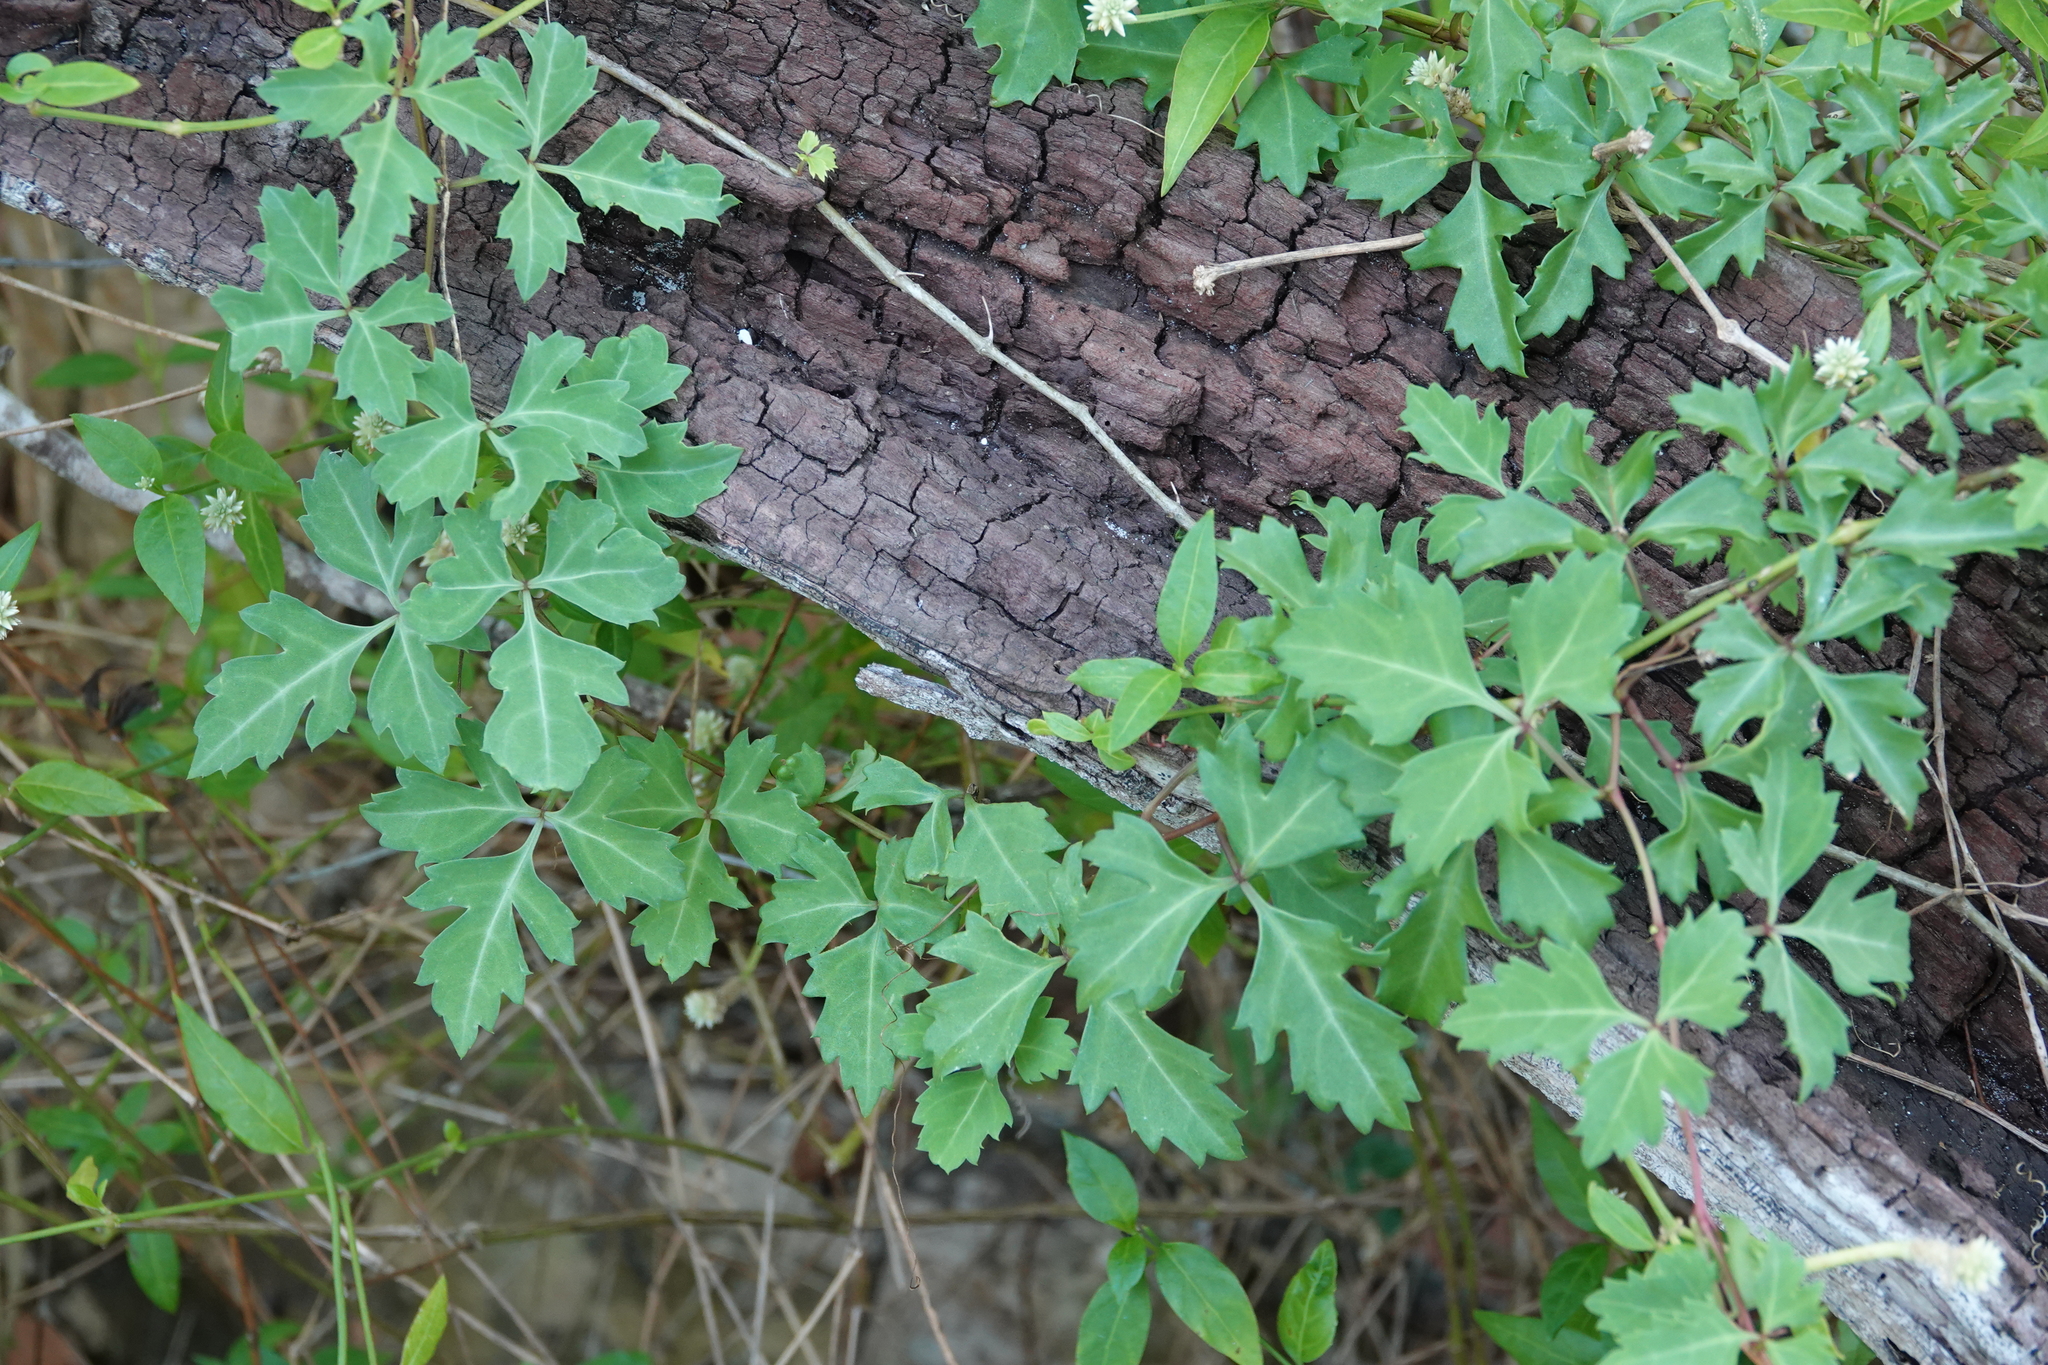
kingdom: Plantae
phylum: Tracheophyta
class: Magnoliopsida
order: Vitales
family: Vitaceae
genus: Cissus
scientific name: Cissus trifoliata
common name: Vine-sorrel
